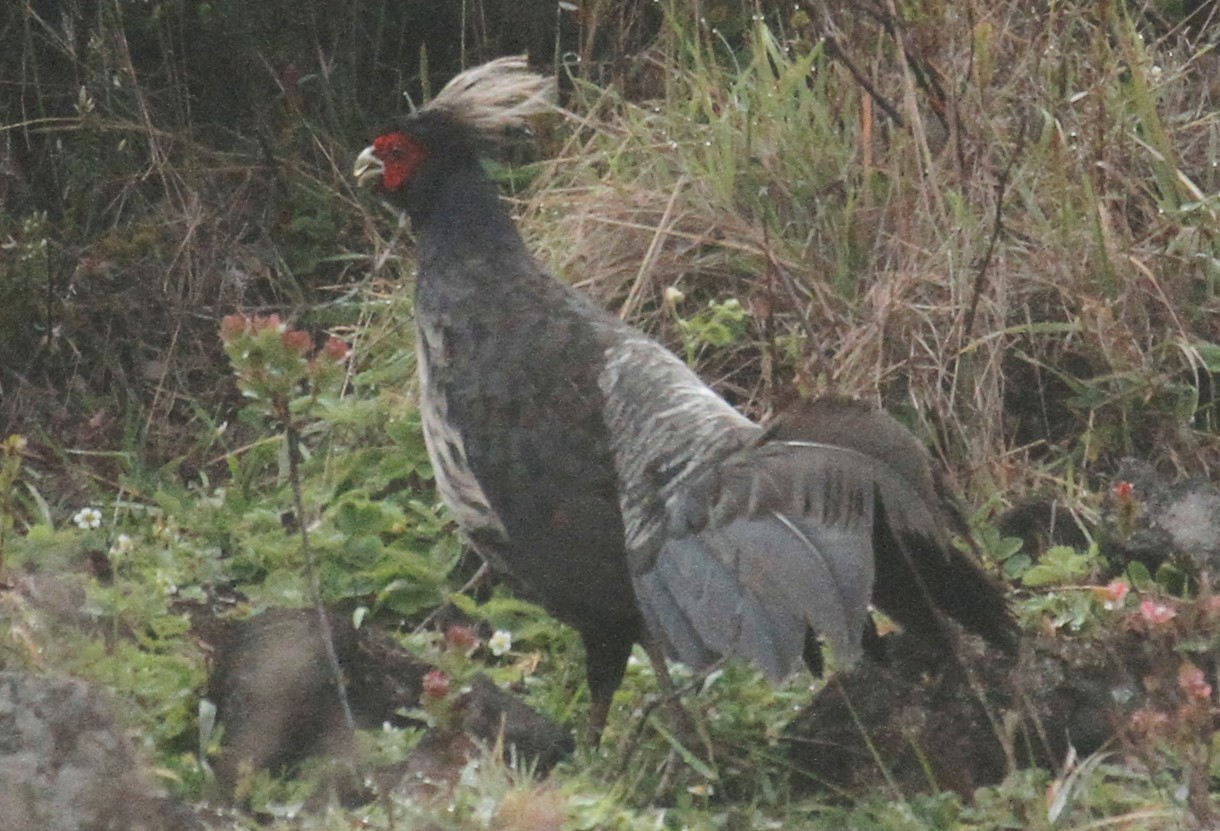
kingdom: Animalia
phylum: Chordata
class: Aves
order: Galliformes
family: Phasianidae
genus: Lophura
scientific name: Lophura leucomelanos
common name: Kalij pheasant
